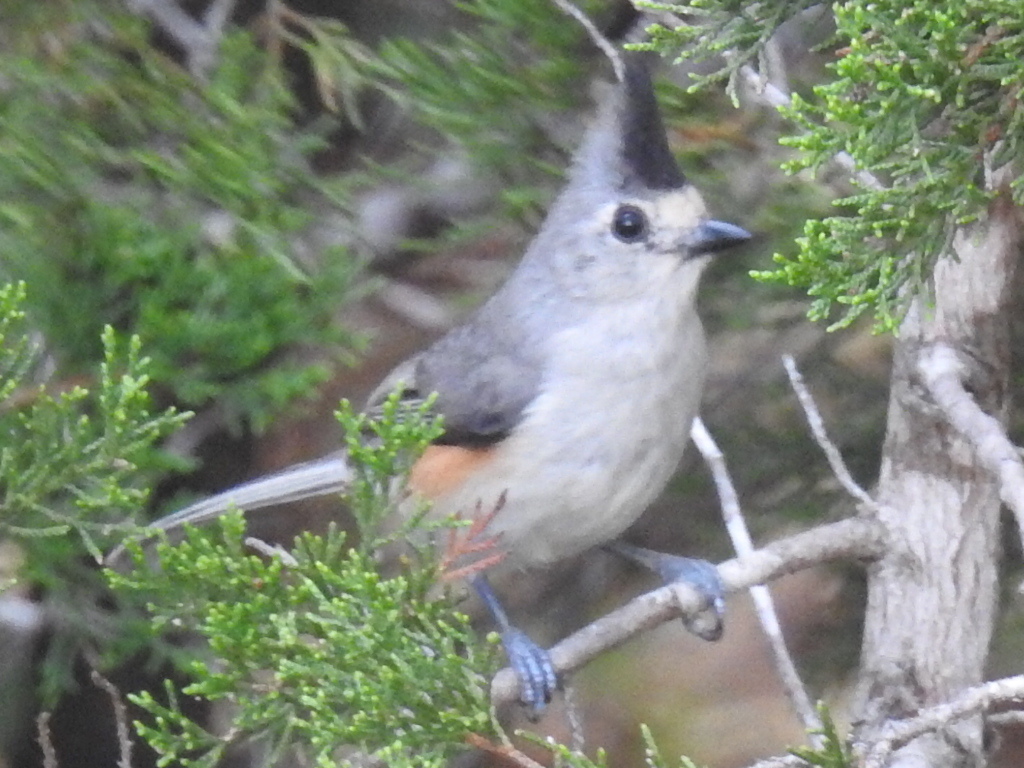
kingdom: Animalia
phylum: Chordata
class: Aves
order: Passeriformes
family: Paridae
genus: Baeolophus
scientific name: Baeolophus atricristatus
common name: Black-crested titmouse
